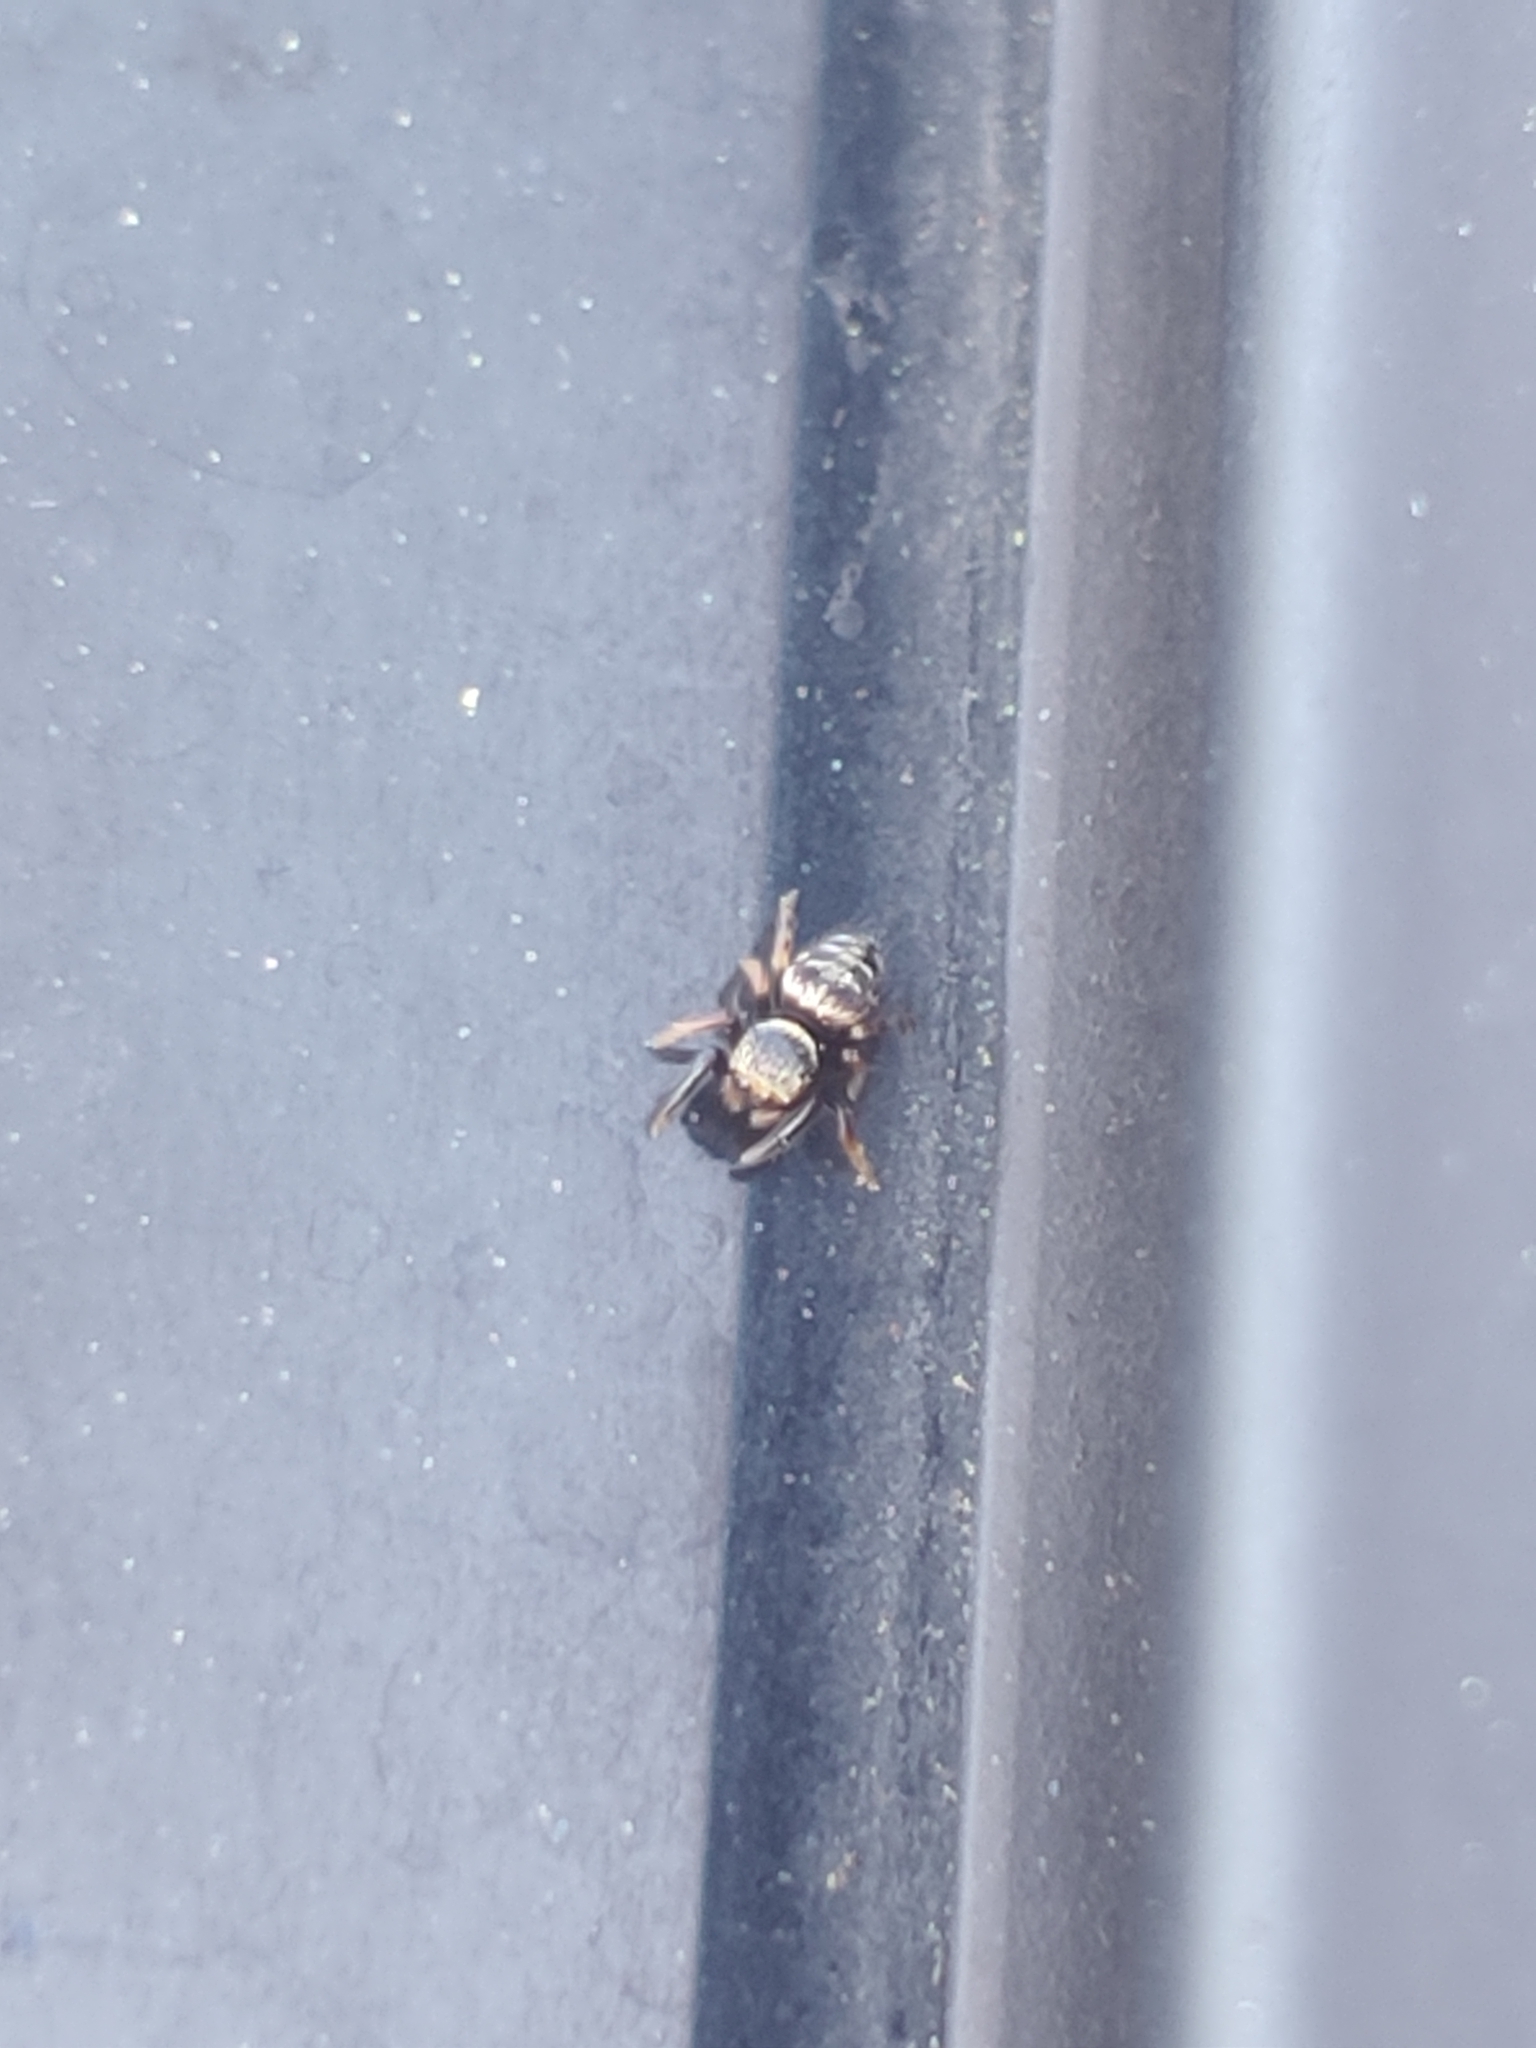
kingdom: Animalia
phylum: Arthropoda
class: Arachnida
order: Araneae
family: Salticidae
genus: Salticus
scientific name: Salticus scenicus
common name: Zebra jumper
